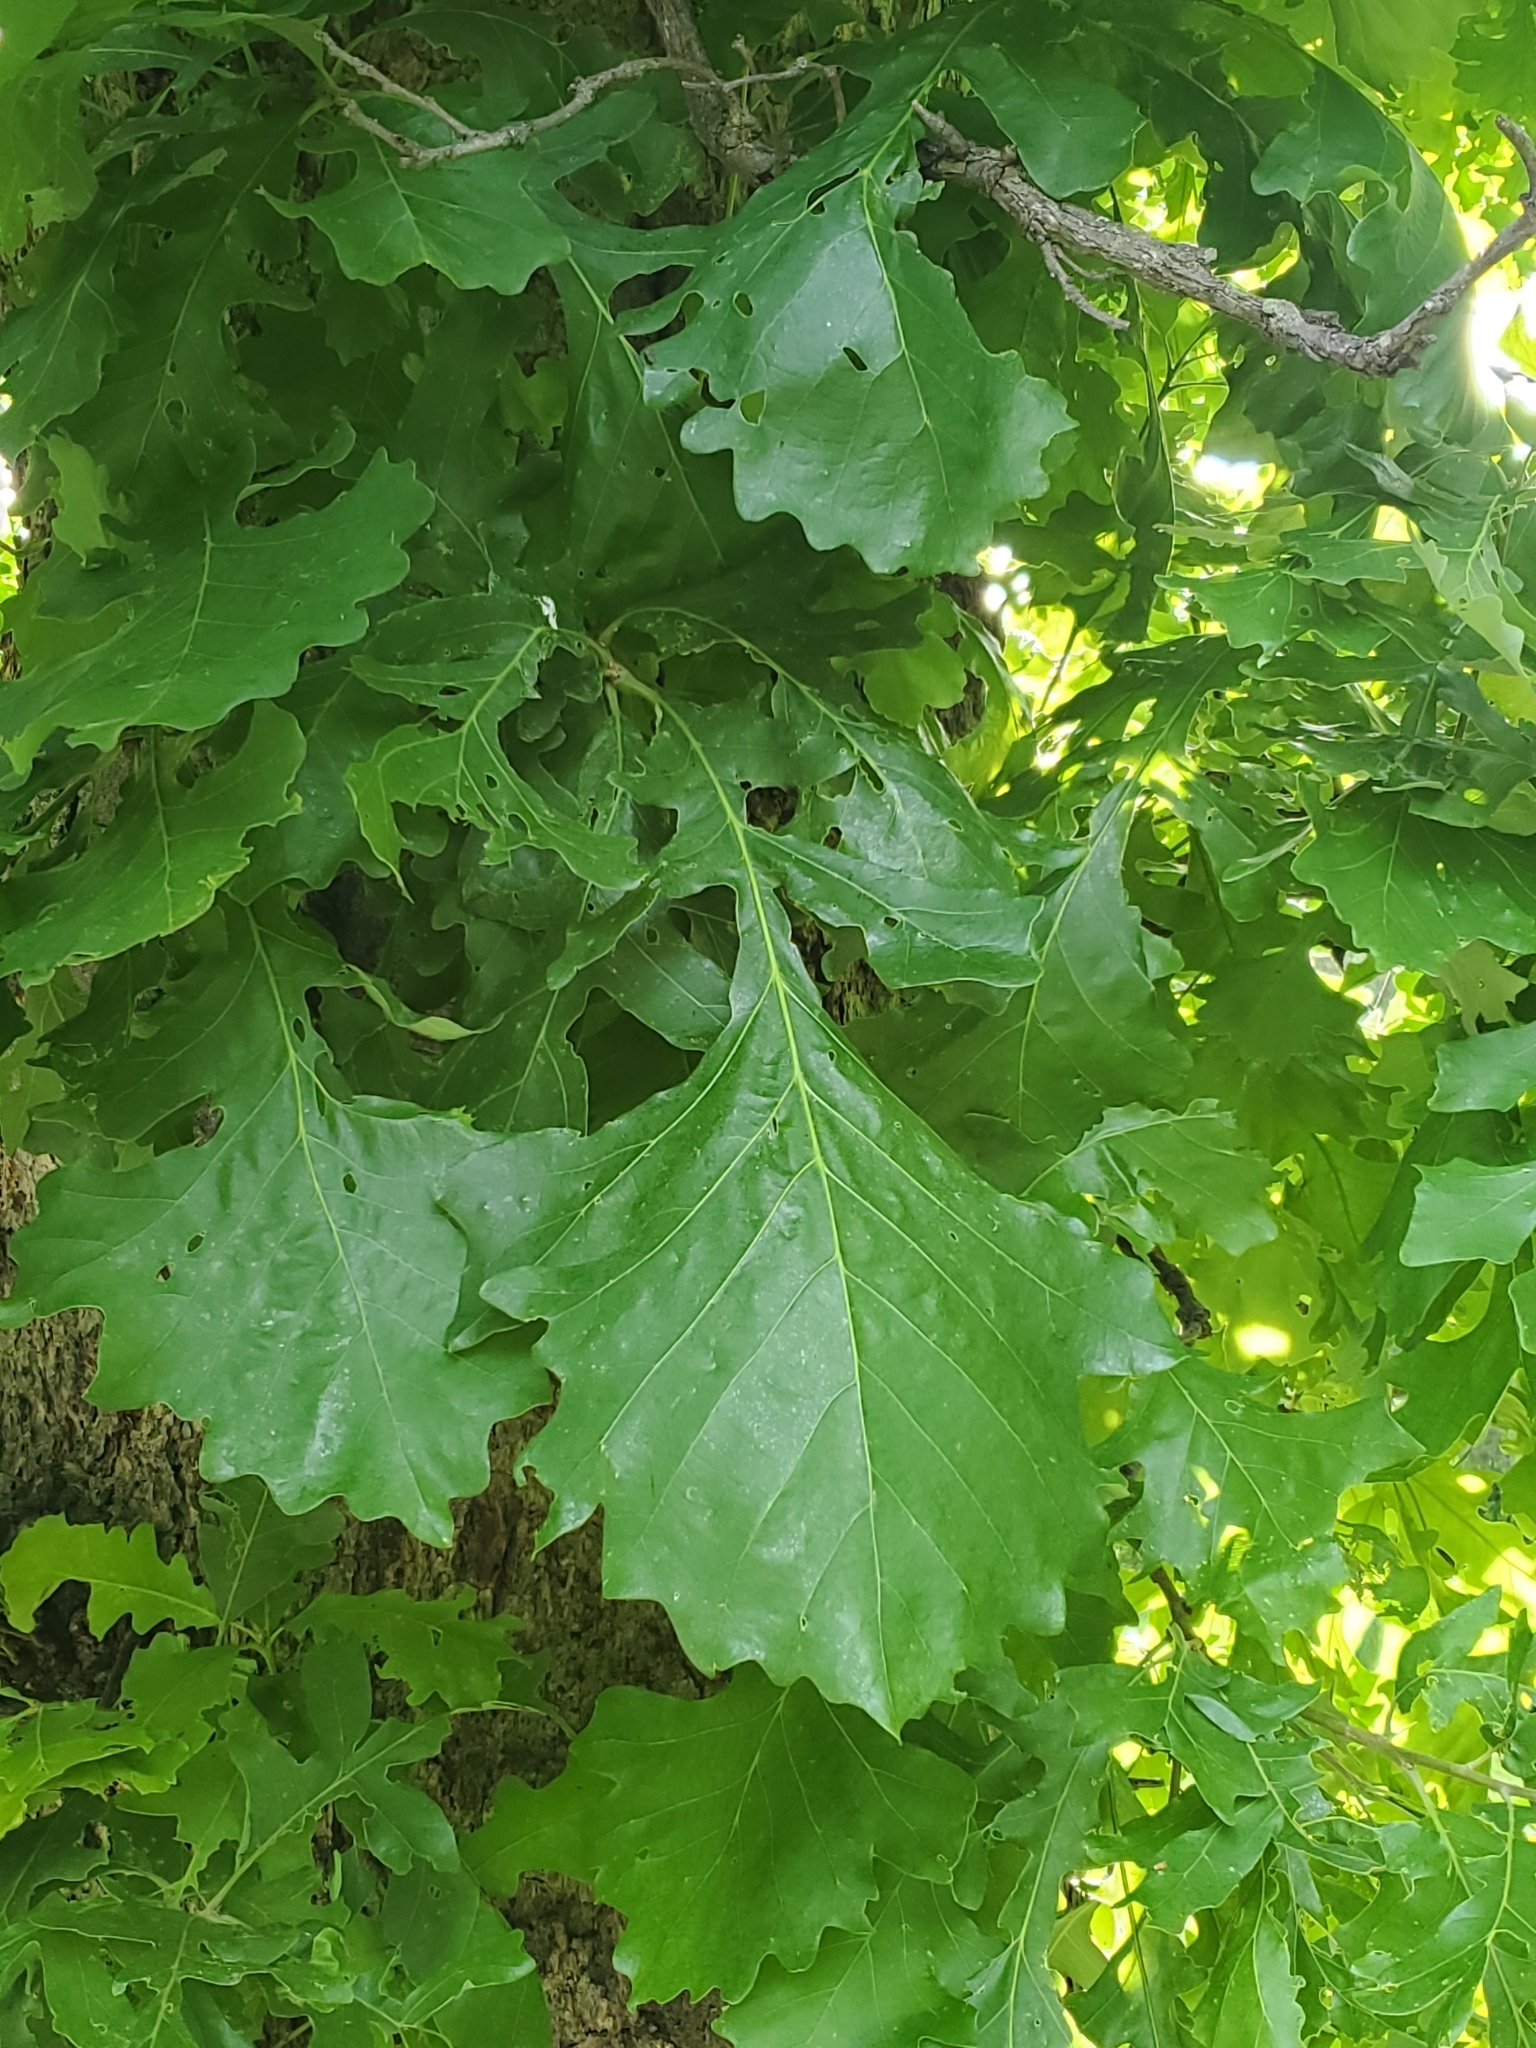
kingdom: Plantae
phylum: Tracheophyta
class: Magnoliopsida
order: Fagales
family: Fagaceae
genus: Quercus
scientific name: Quercus macrocarpa
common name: Bur oak
